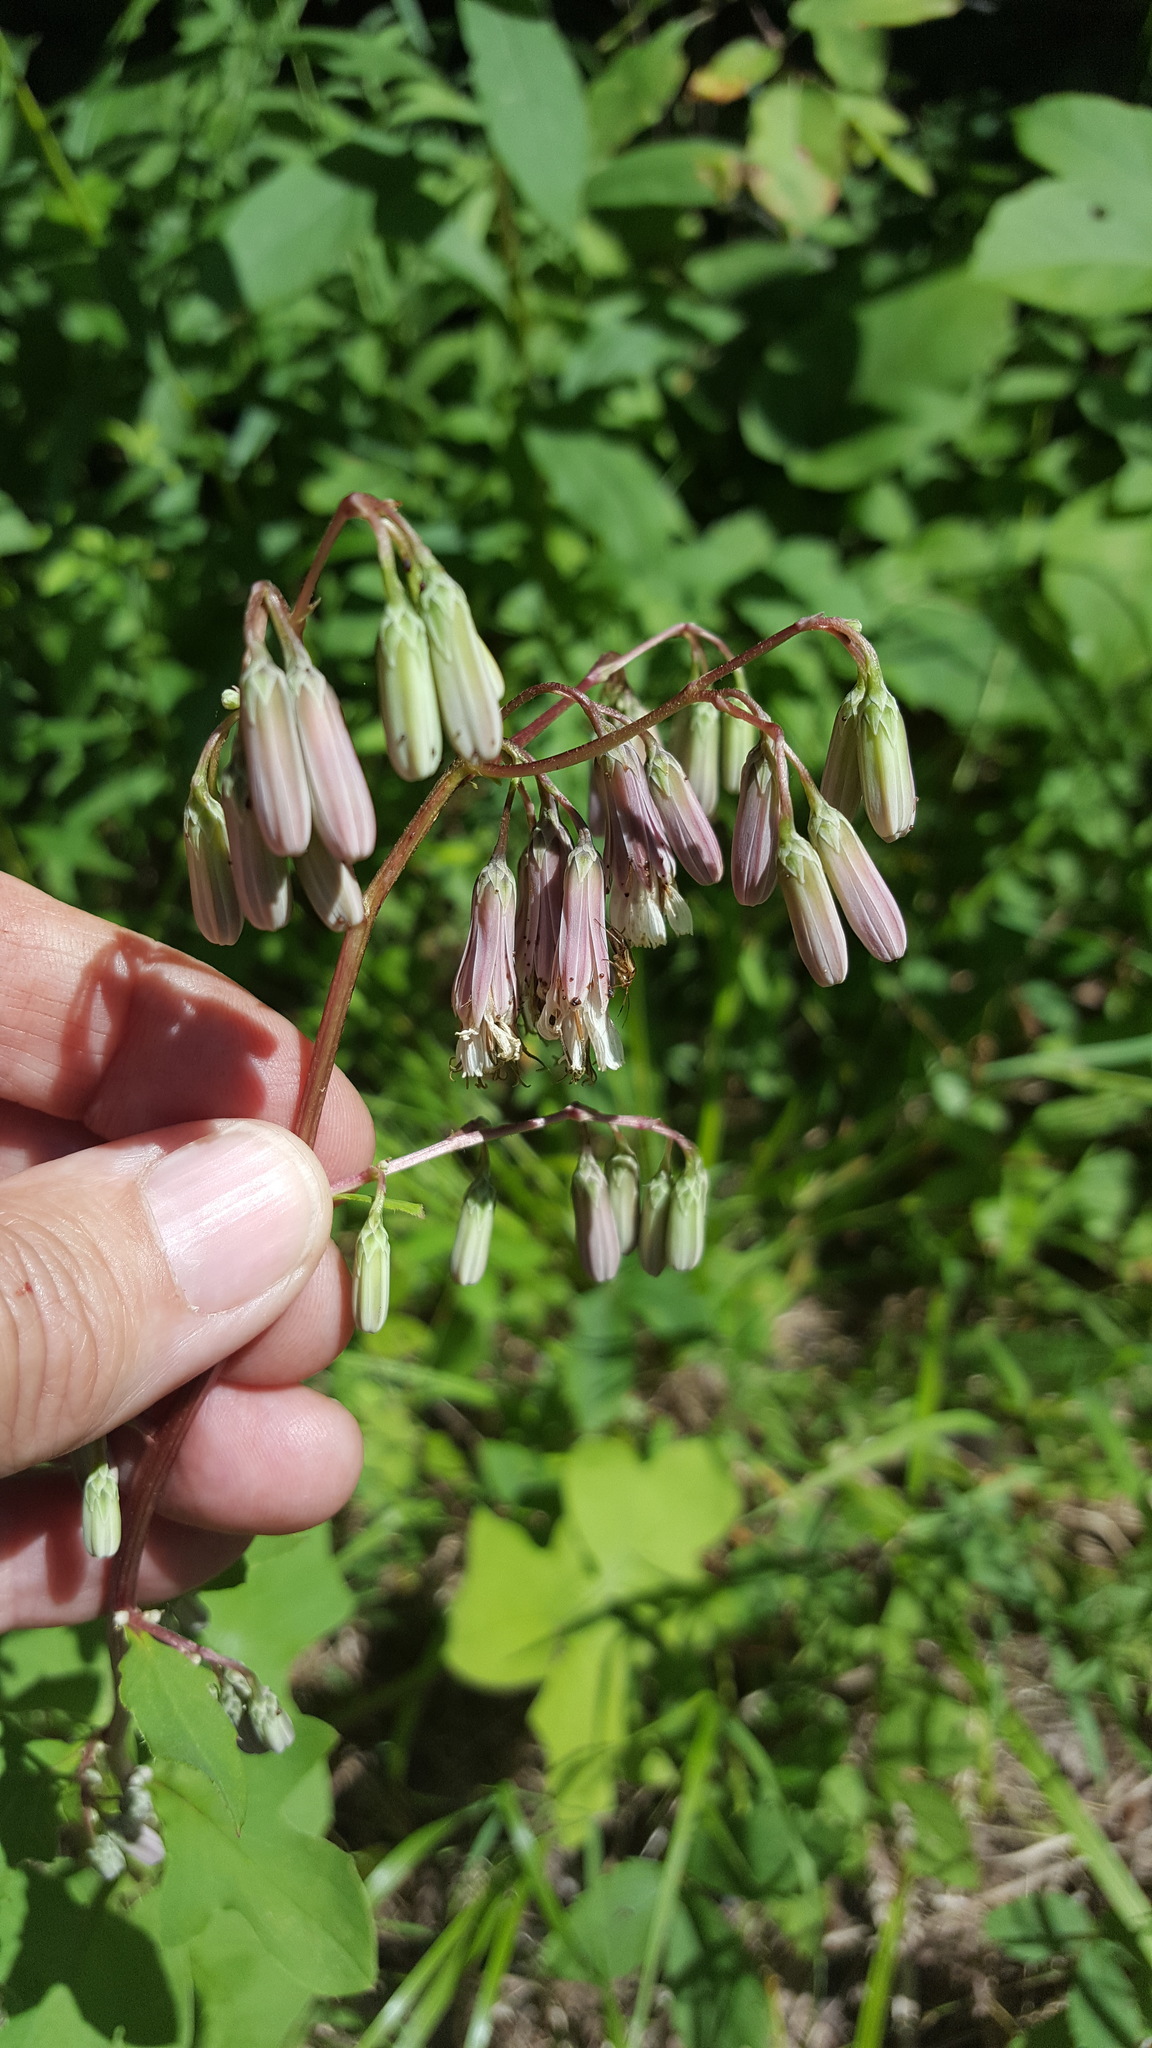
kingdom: Plantae
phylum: Tracheophyta
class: Magnoliopsida
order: Asterales
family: Asteraceae
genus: Nabalus
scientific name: Nabalus albus
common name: White rattlesnakeroot
